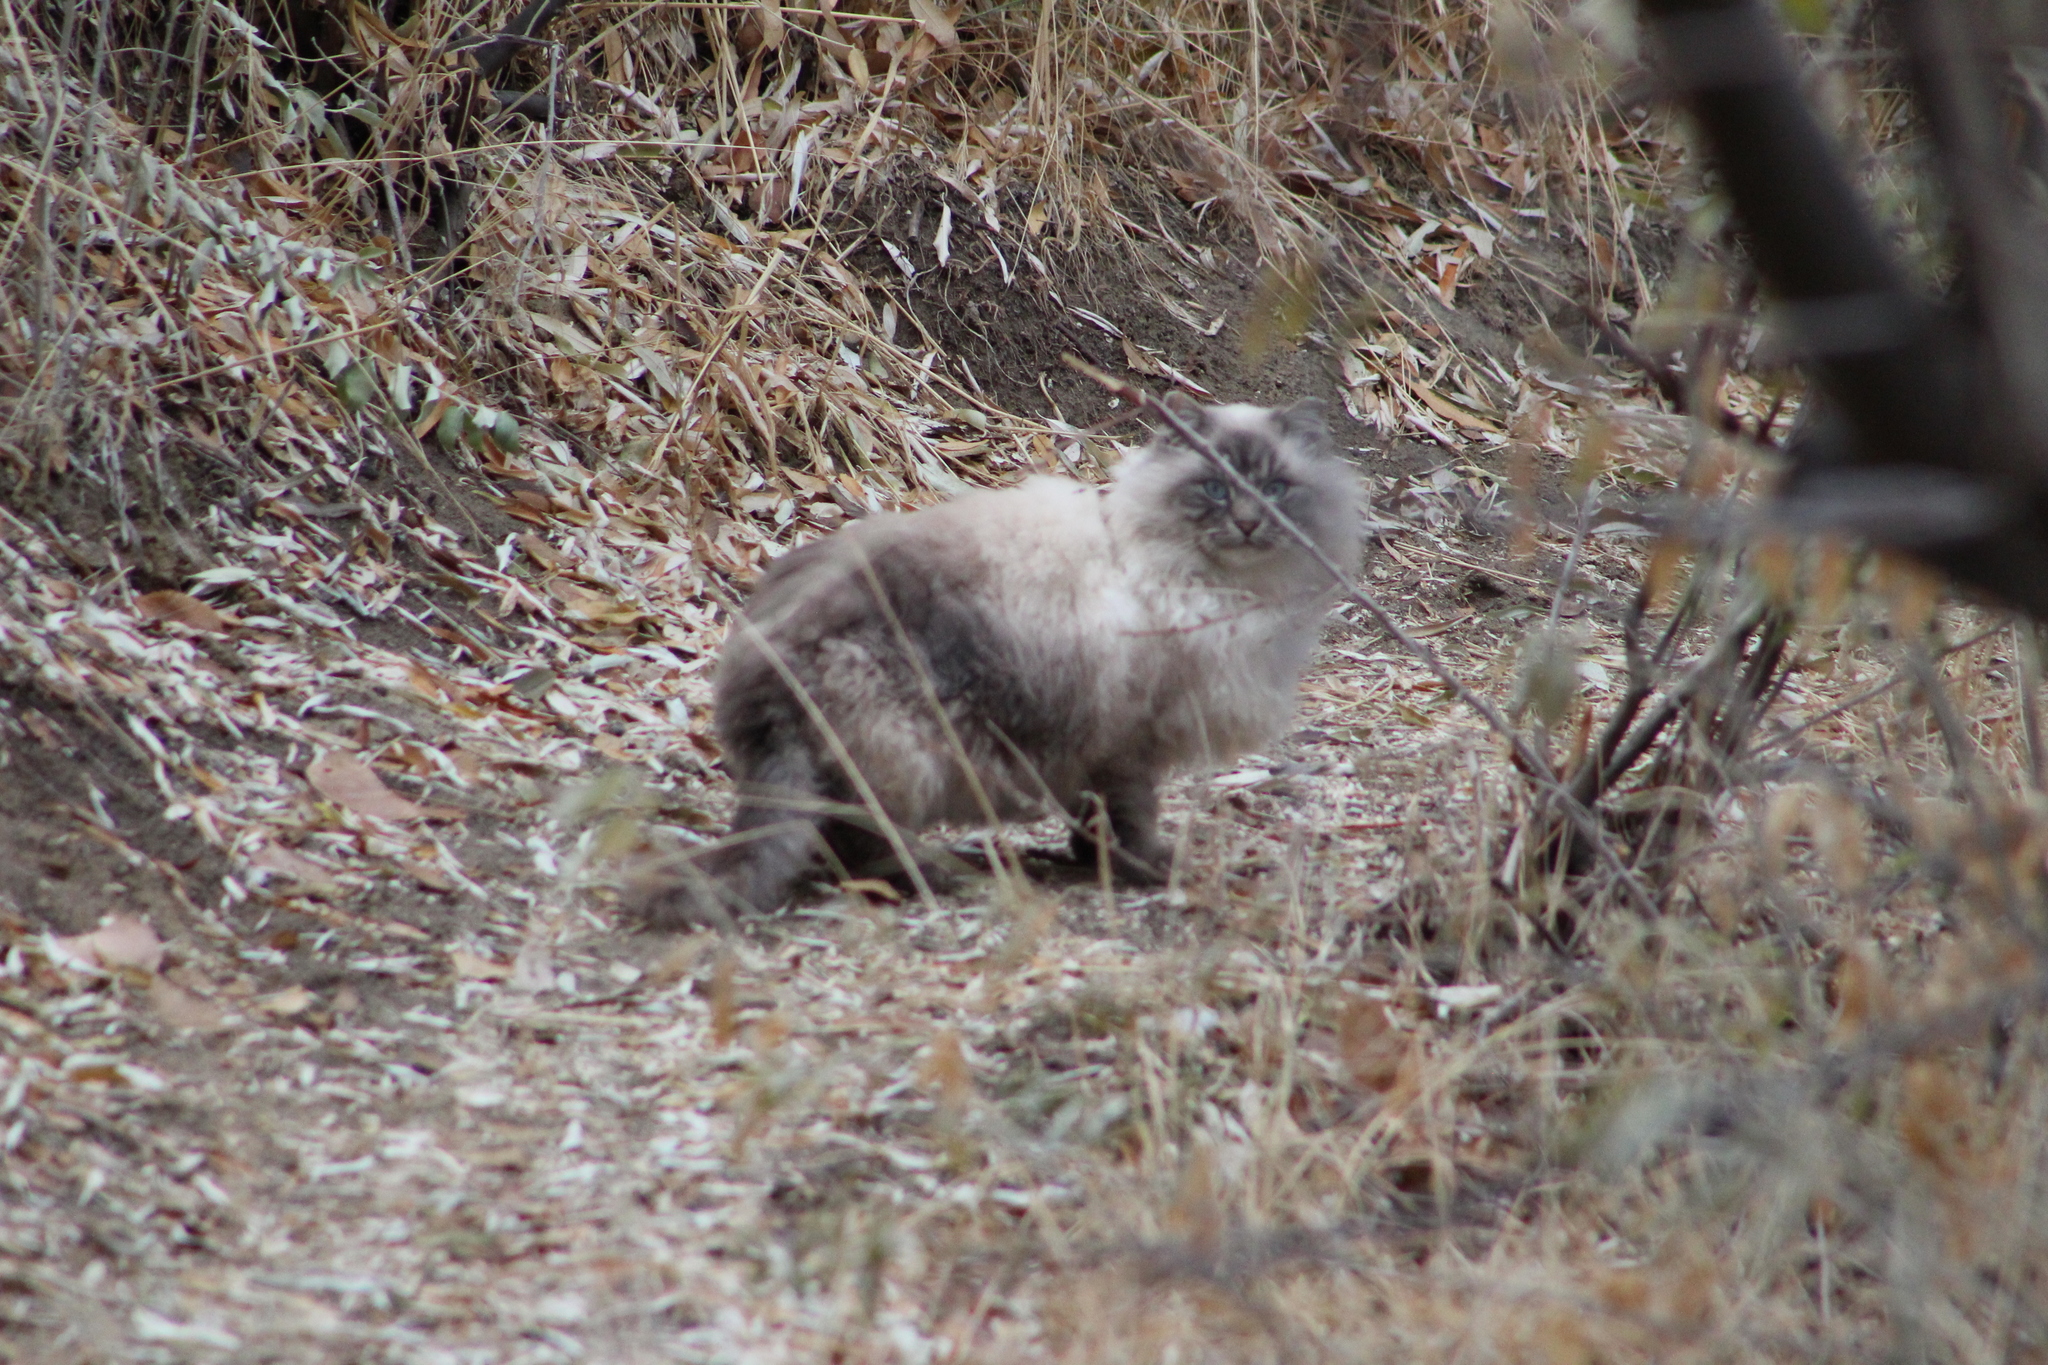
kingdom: Animalia
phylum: Chordata
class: Mammalia
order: Carnivora
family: Felidae
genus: Felis
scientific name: Felis catus
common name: Domestic cat
